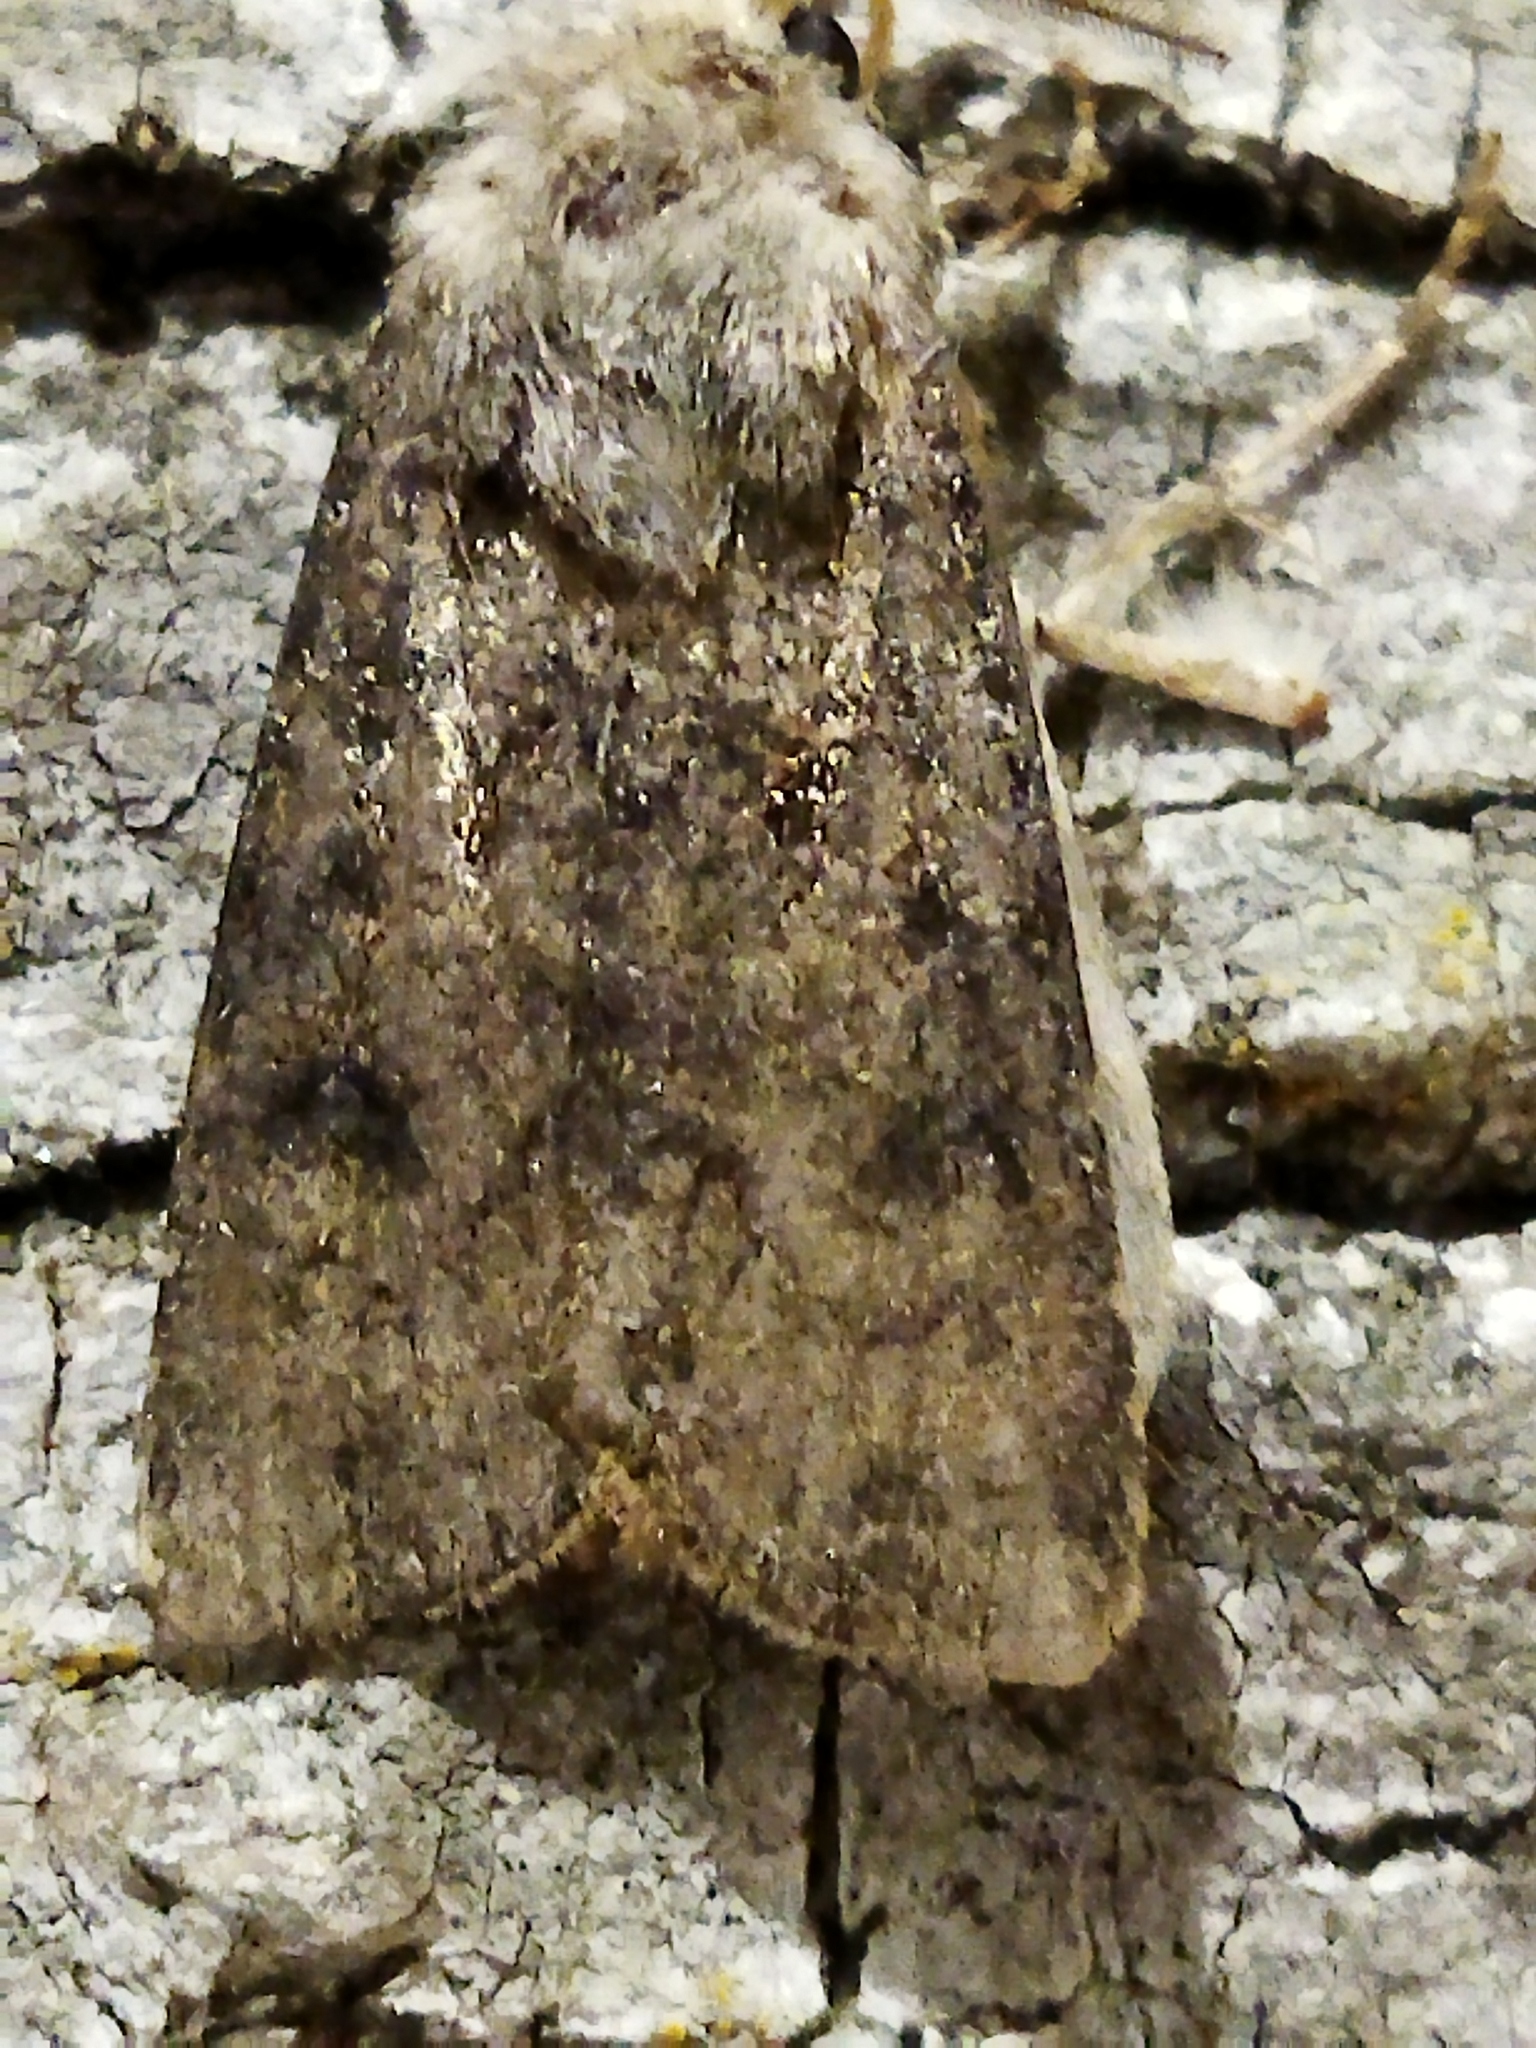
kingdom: Animalia
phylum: Arthropoda
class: Insecta
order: Lepidoptera
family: Noctuidae
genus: Agrotis
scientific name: Agrotis segetum
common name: Turnip moth
